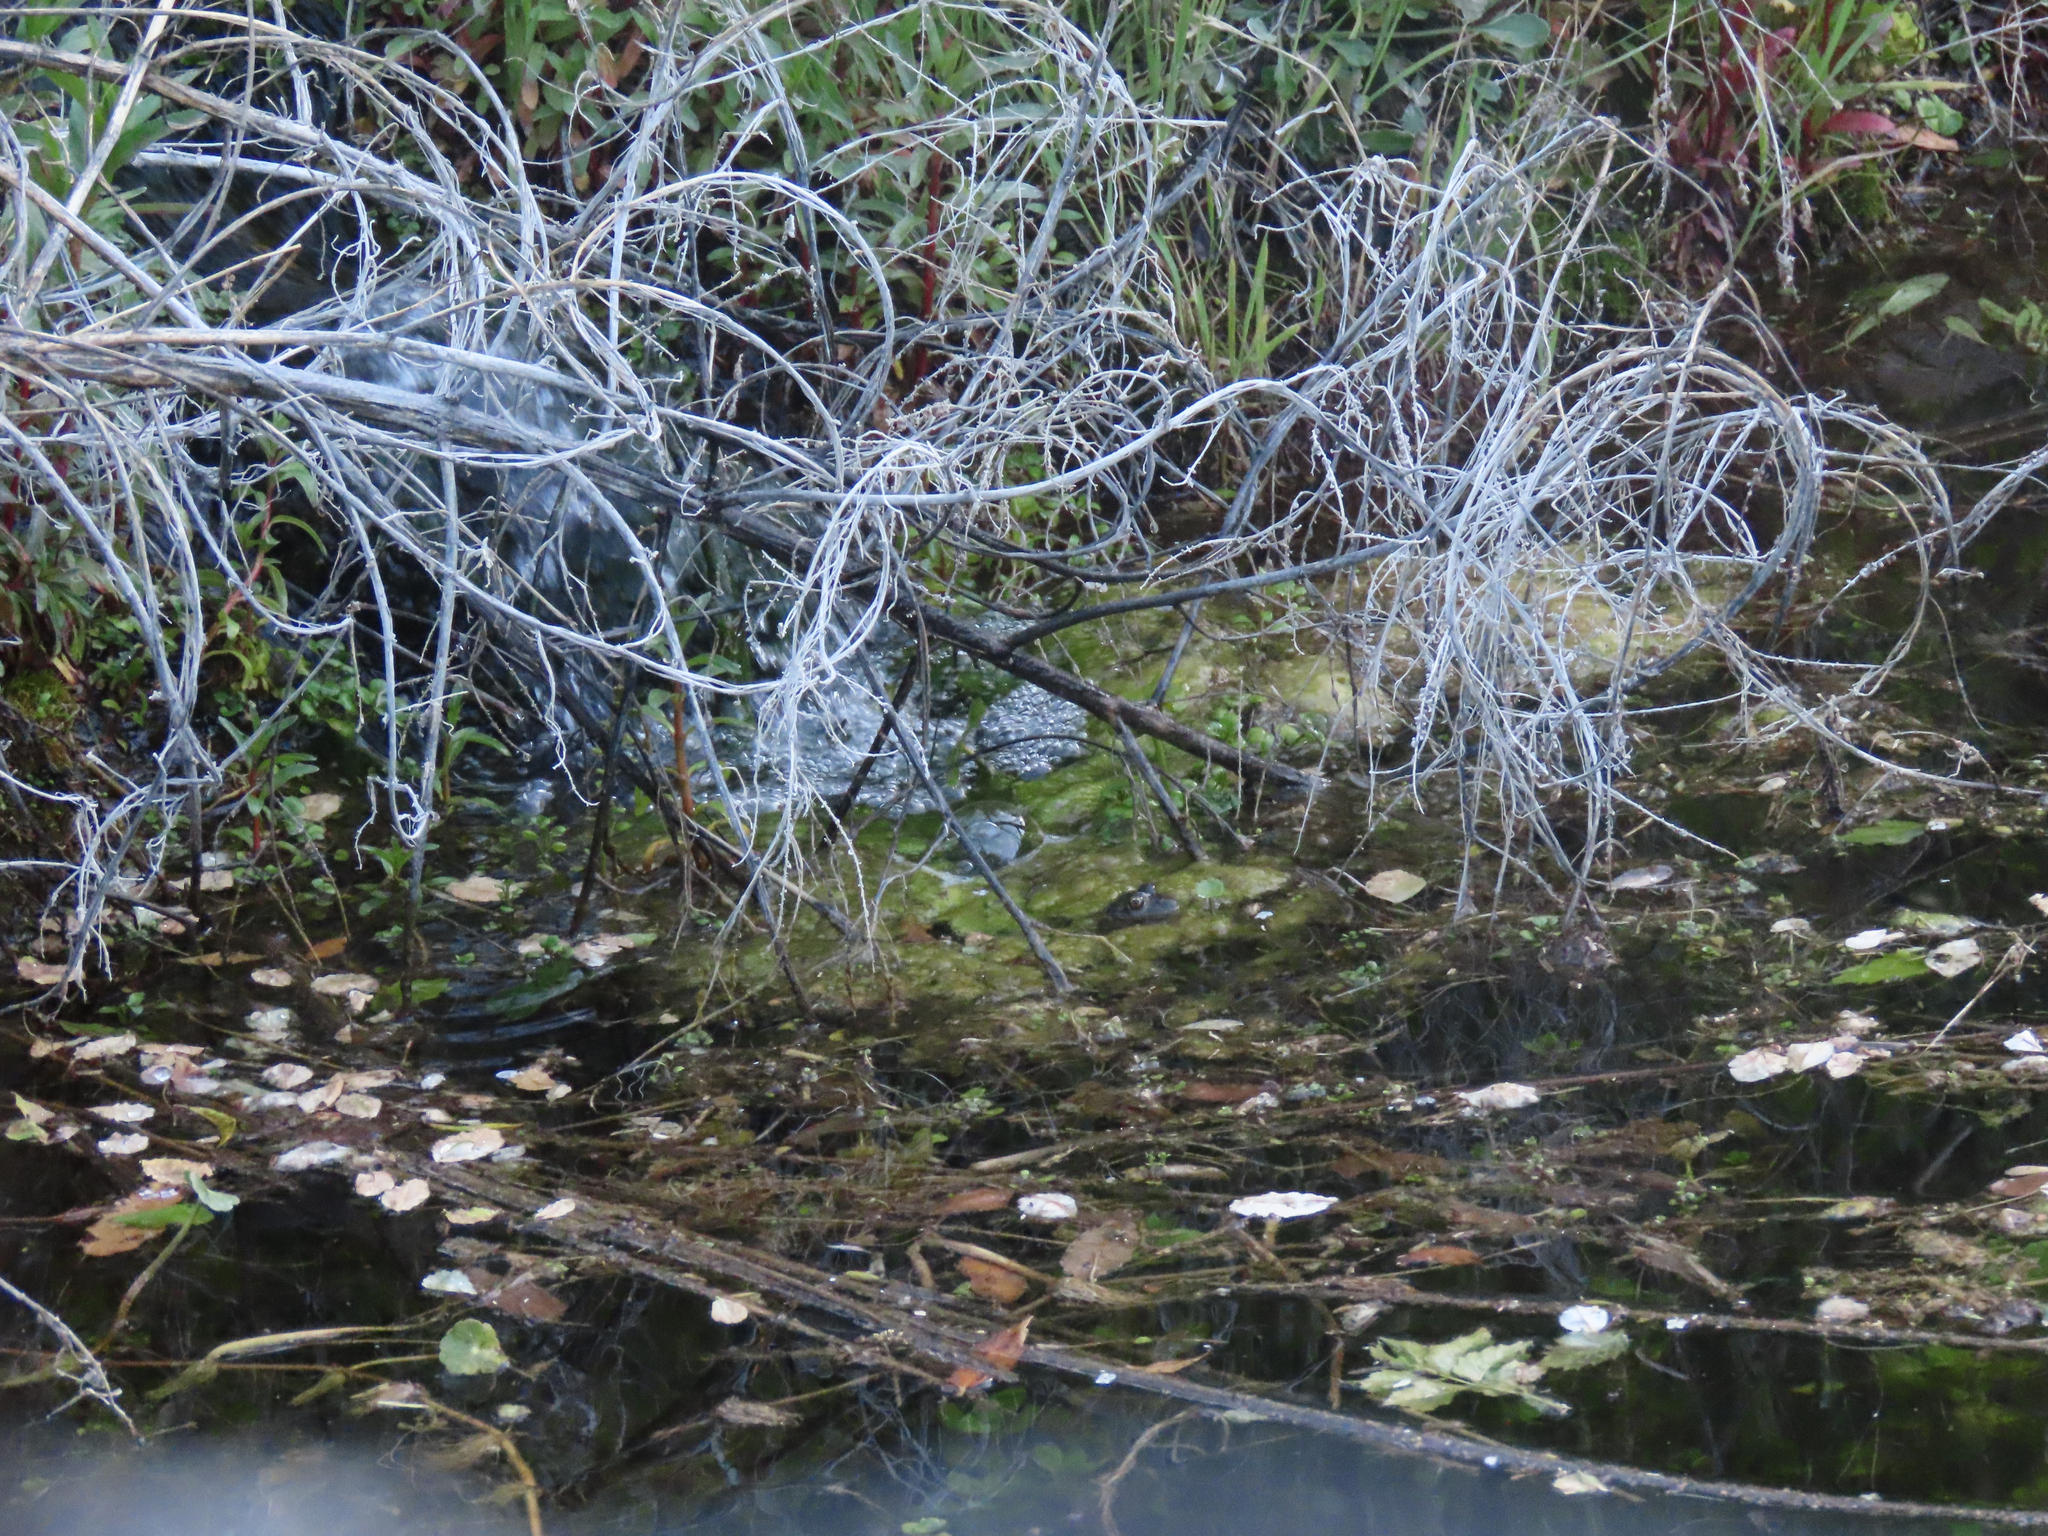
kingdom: Animalia
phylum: Chordata
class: Amphibia
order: Anura
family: Ranidae
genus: Lithobates
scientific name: Lithobates chiricahuensis
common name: Chiricahua leopard frog
